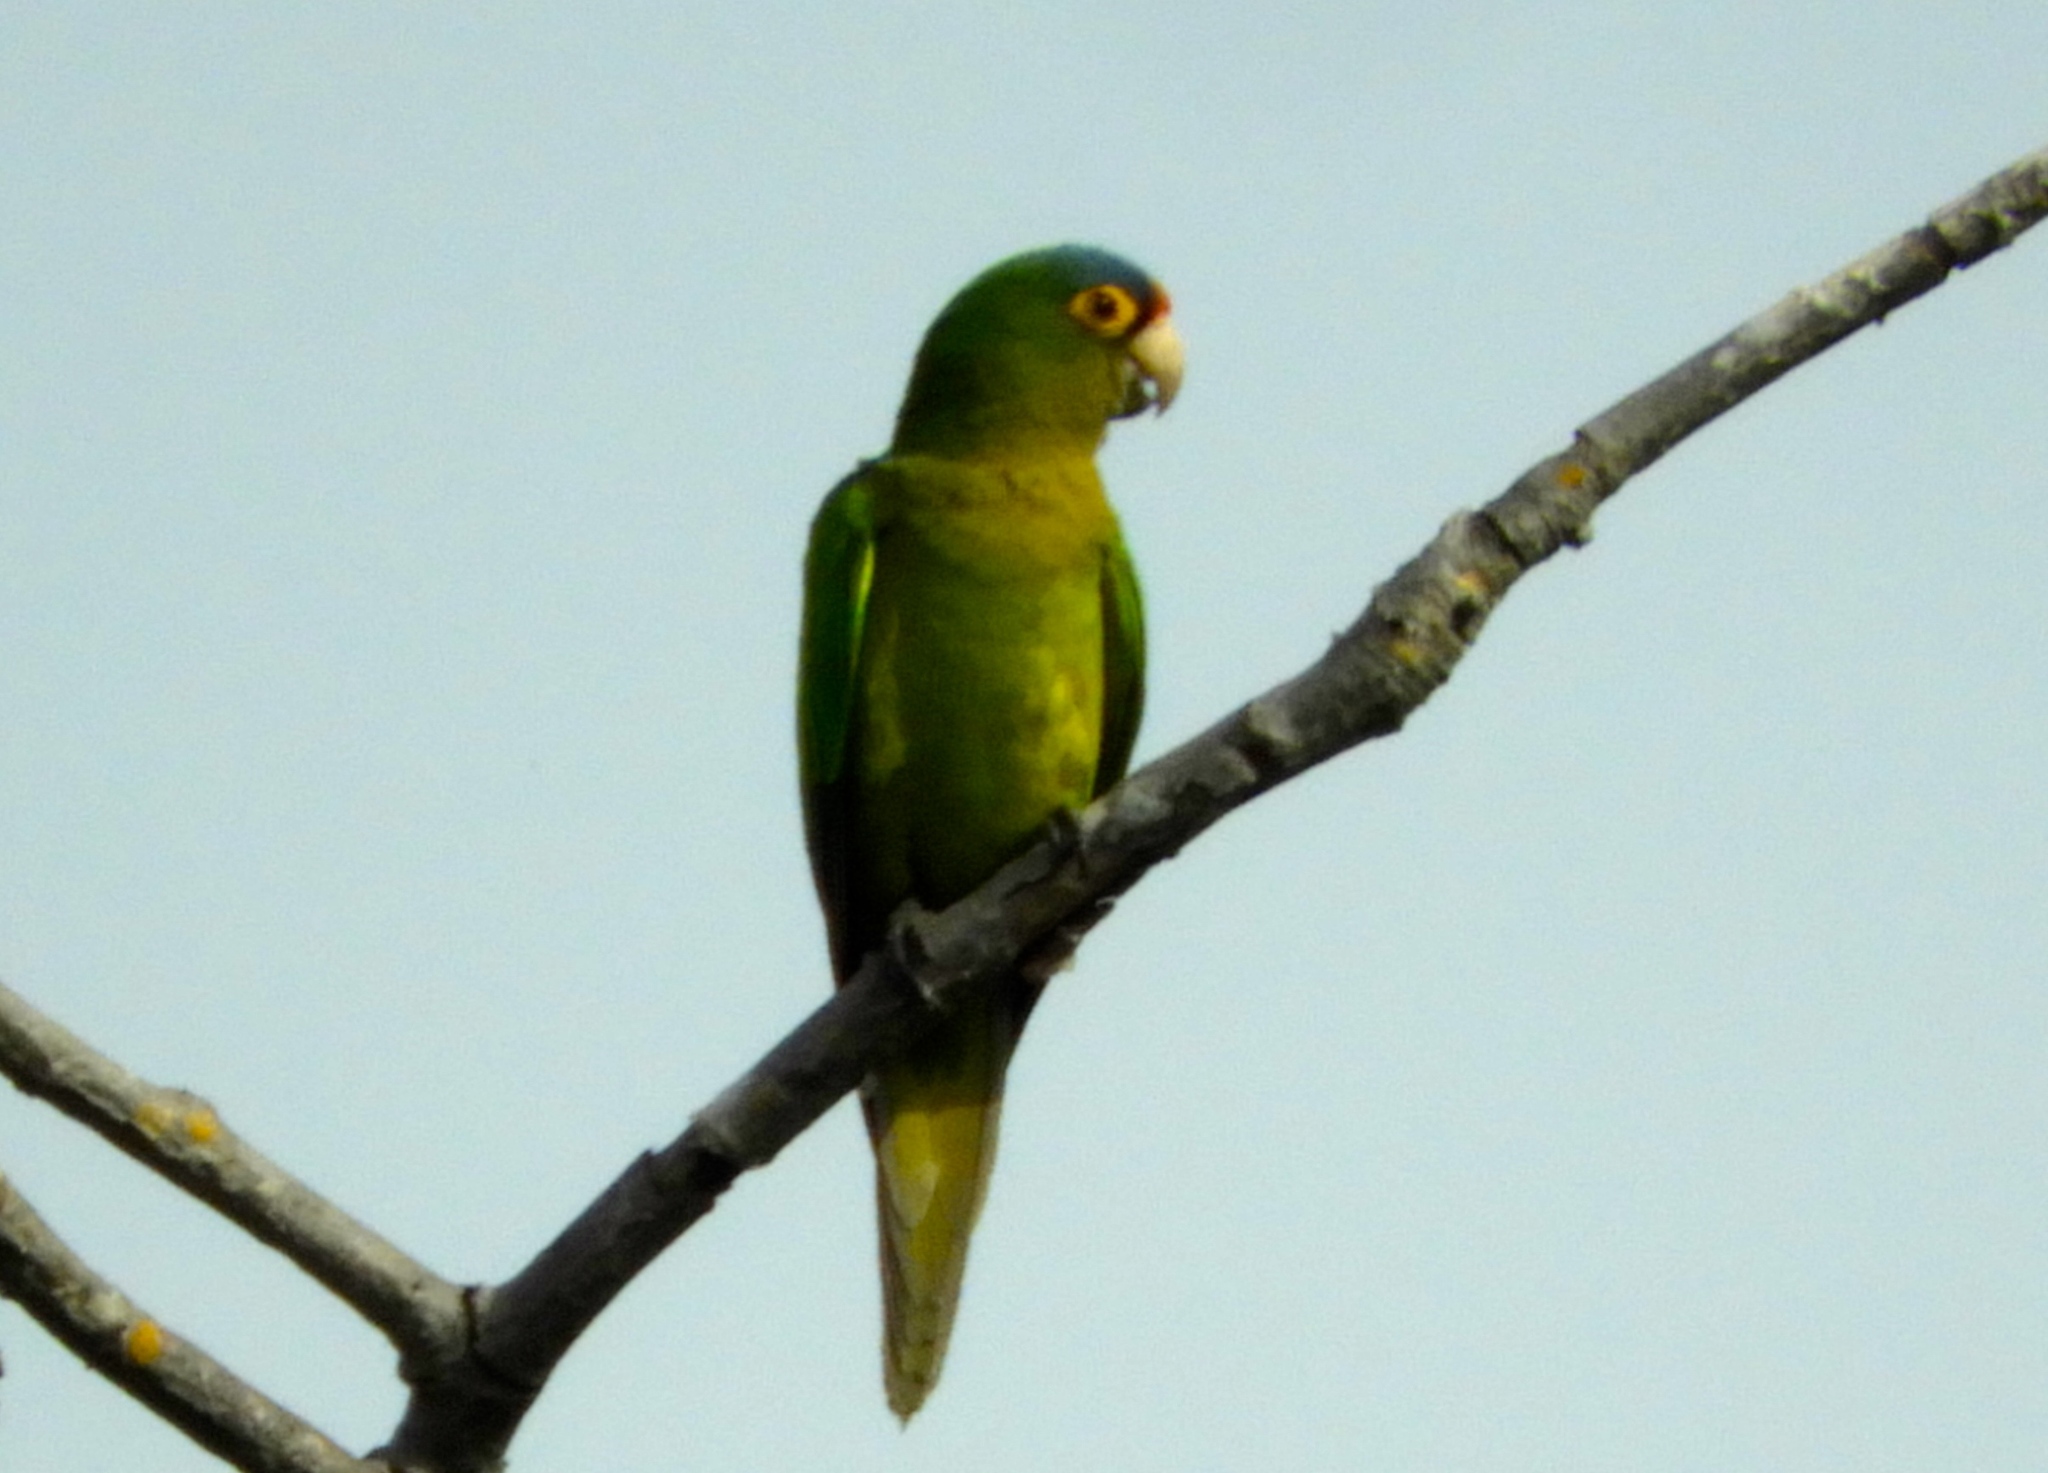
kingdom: Animalia
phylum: Chordata
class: Aves
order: Psittaciformes
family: Psittacidae
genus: Aratinga
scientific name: Aratinga canicularis
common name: Orange-fronted parakeet
